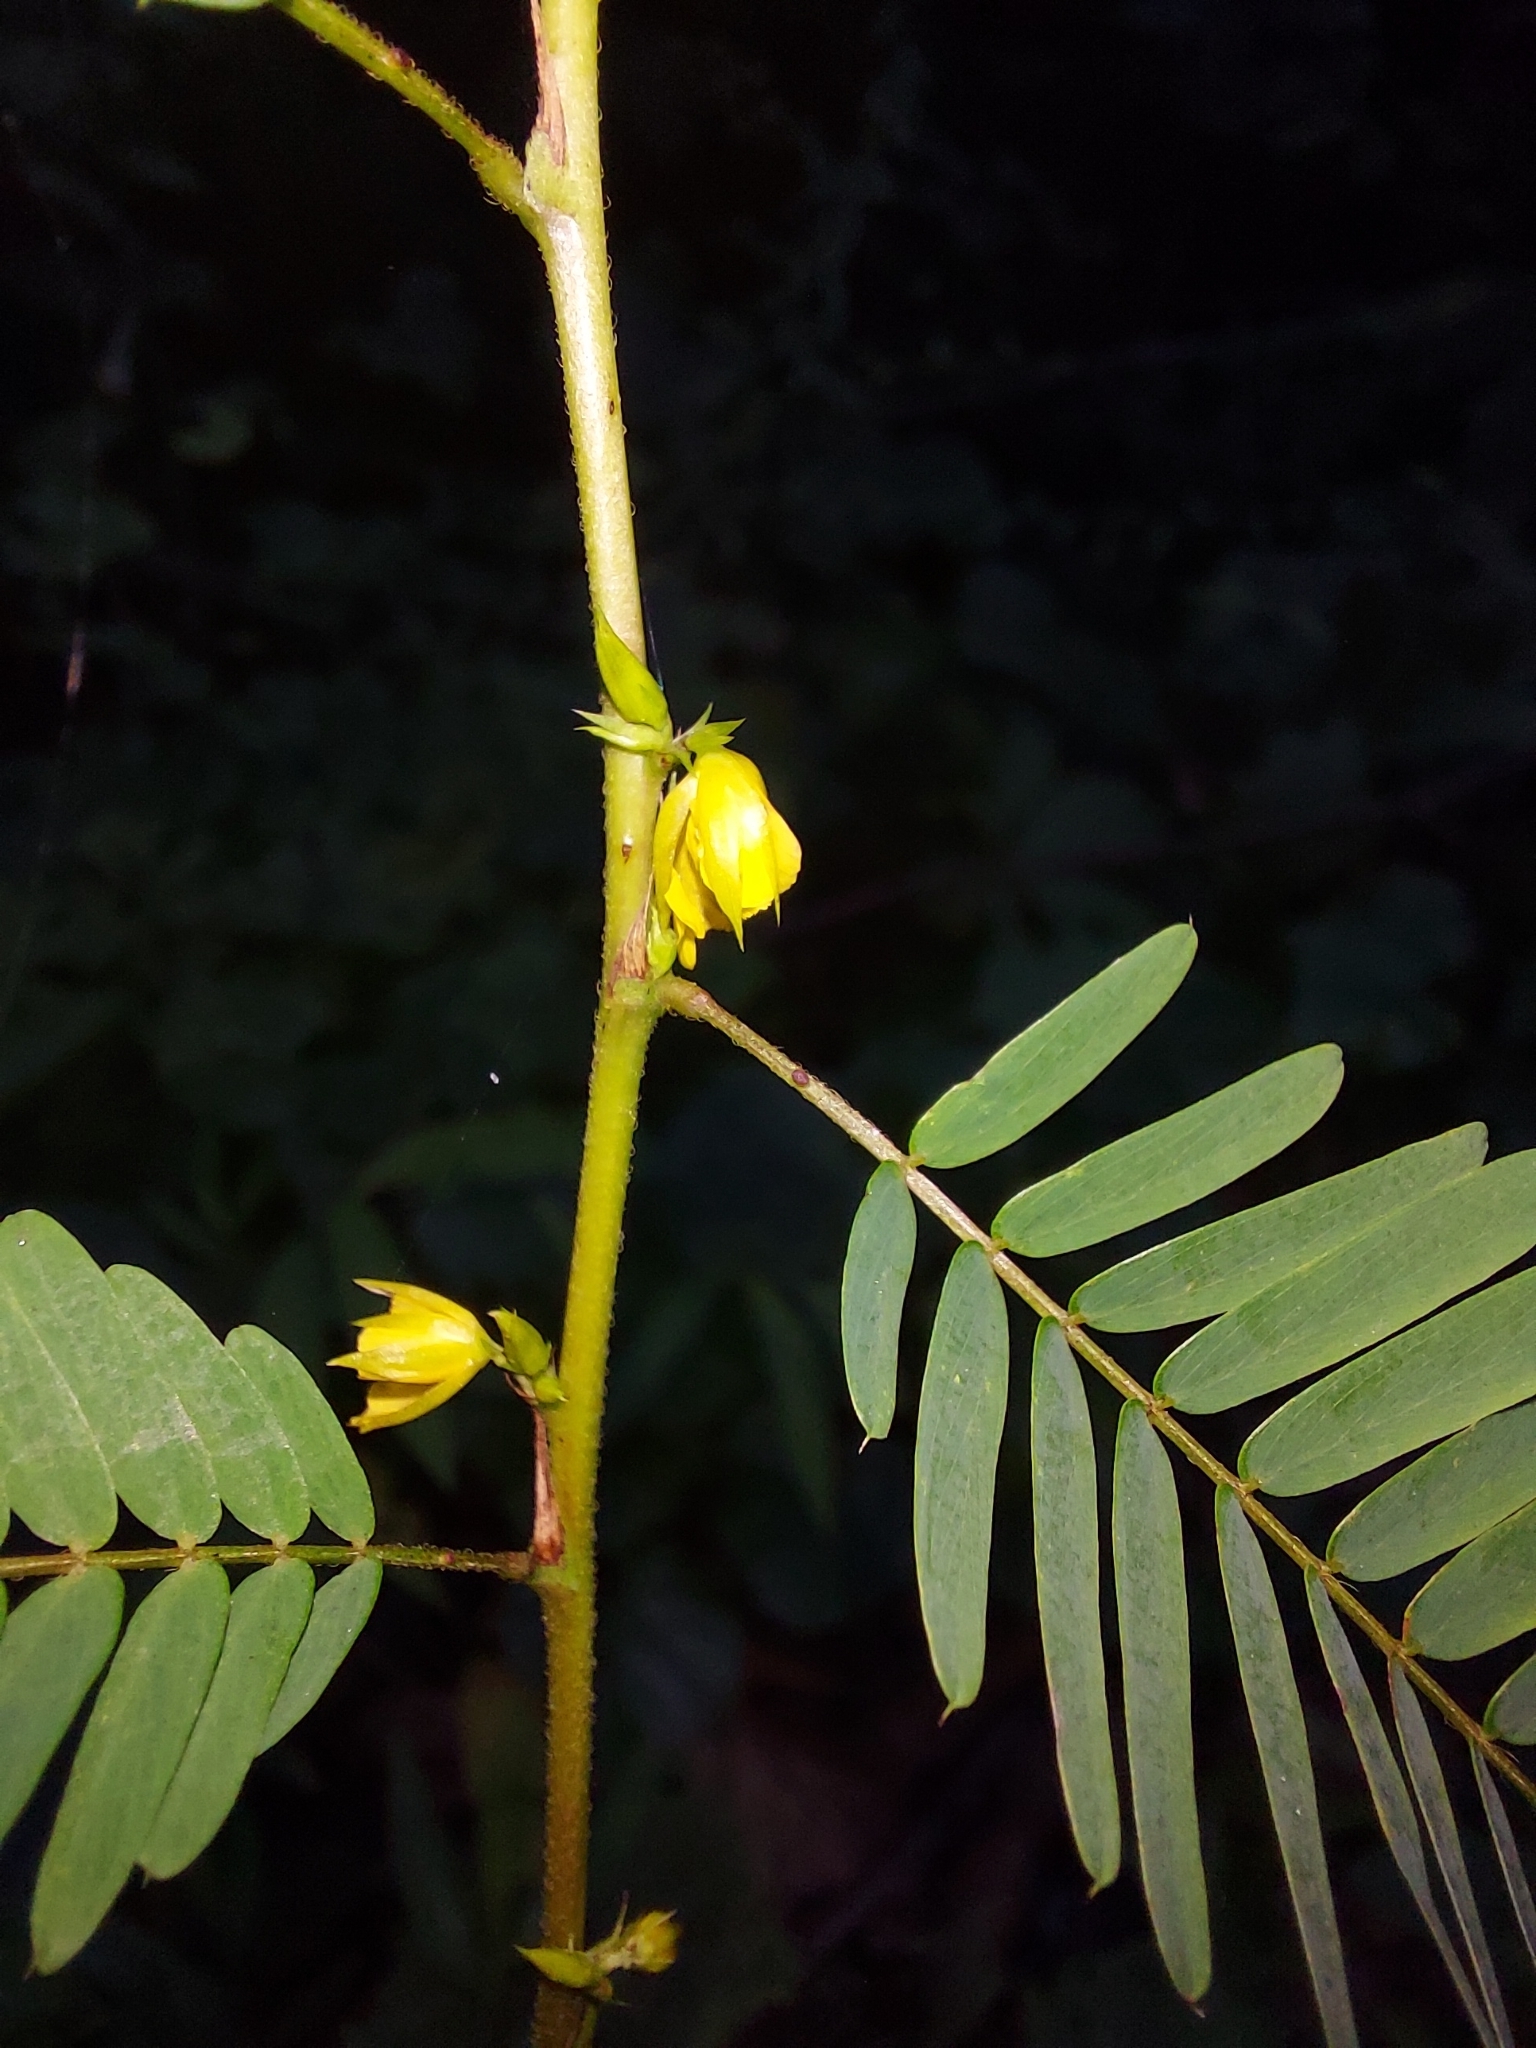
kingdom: Plantae
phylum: Tracheophyta
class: Magnoliopsida
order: Fabales
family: Fabaceae
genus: Chamaecrista
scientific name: Chamaecrista nictitans
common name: Sensitive cassia
